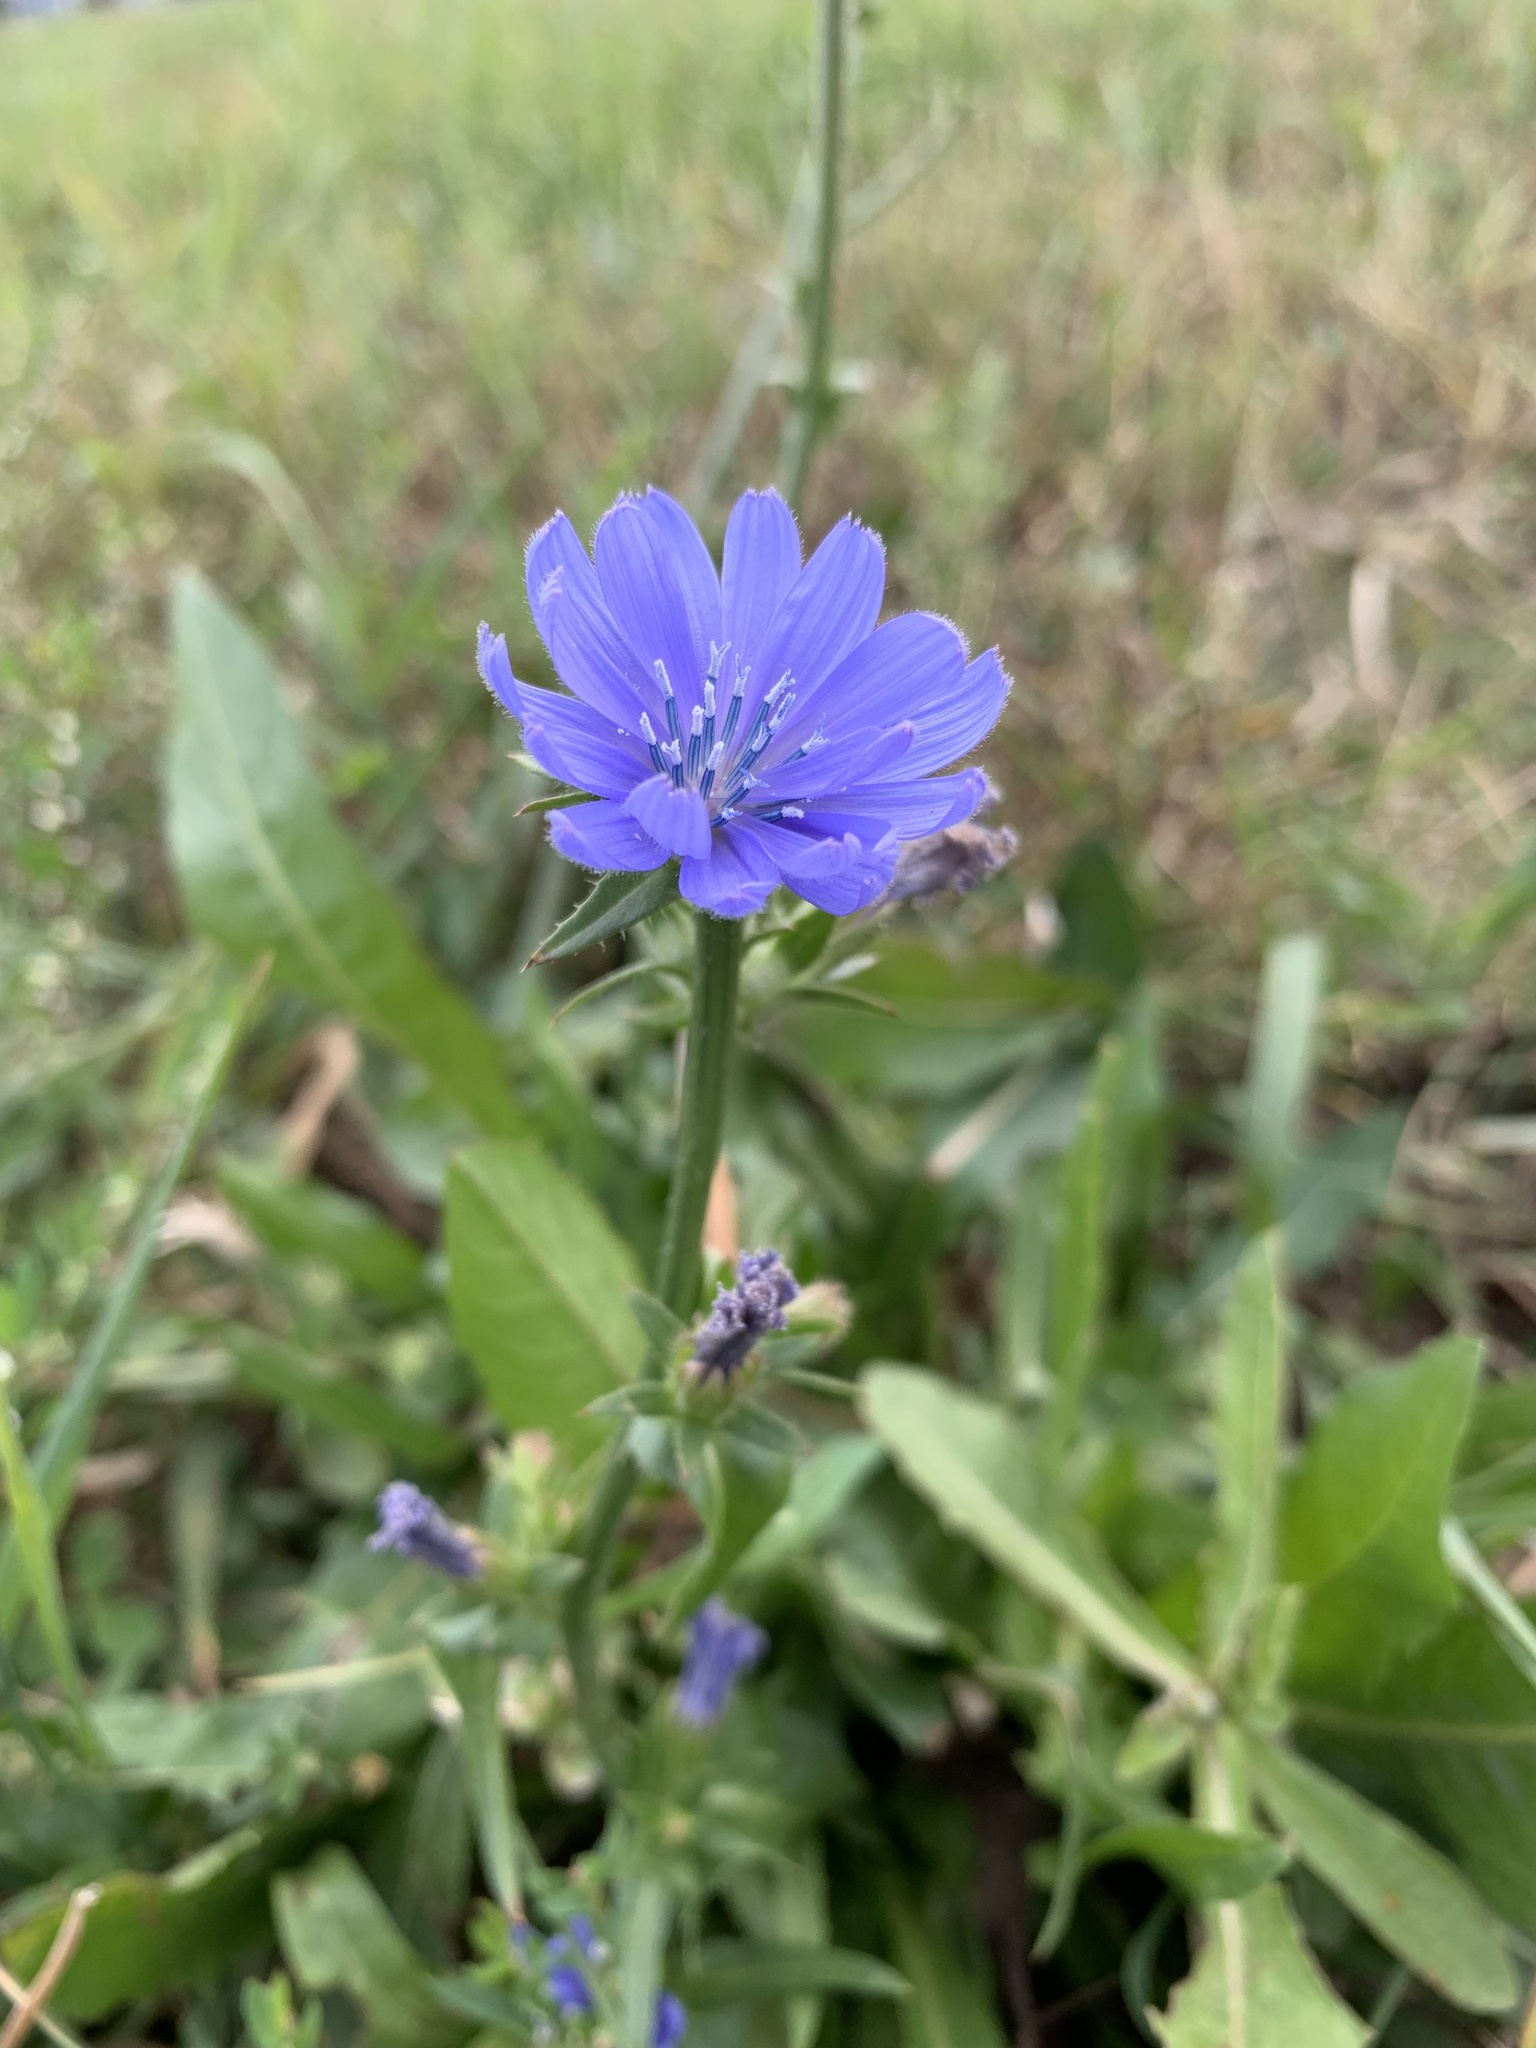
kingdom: Plantae
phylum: Tracheophyta
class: Magnoliopsida
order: Asterales
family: Asteraceae
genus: Cichorium
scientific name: Cichorium intybus
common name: Chicory
